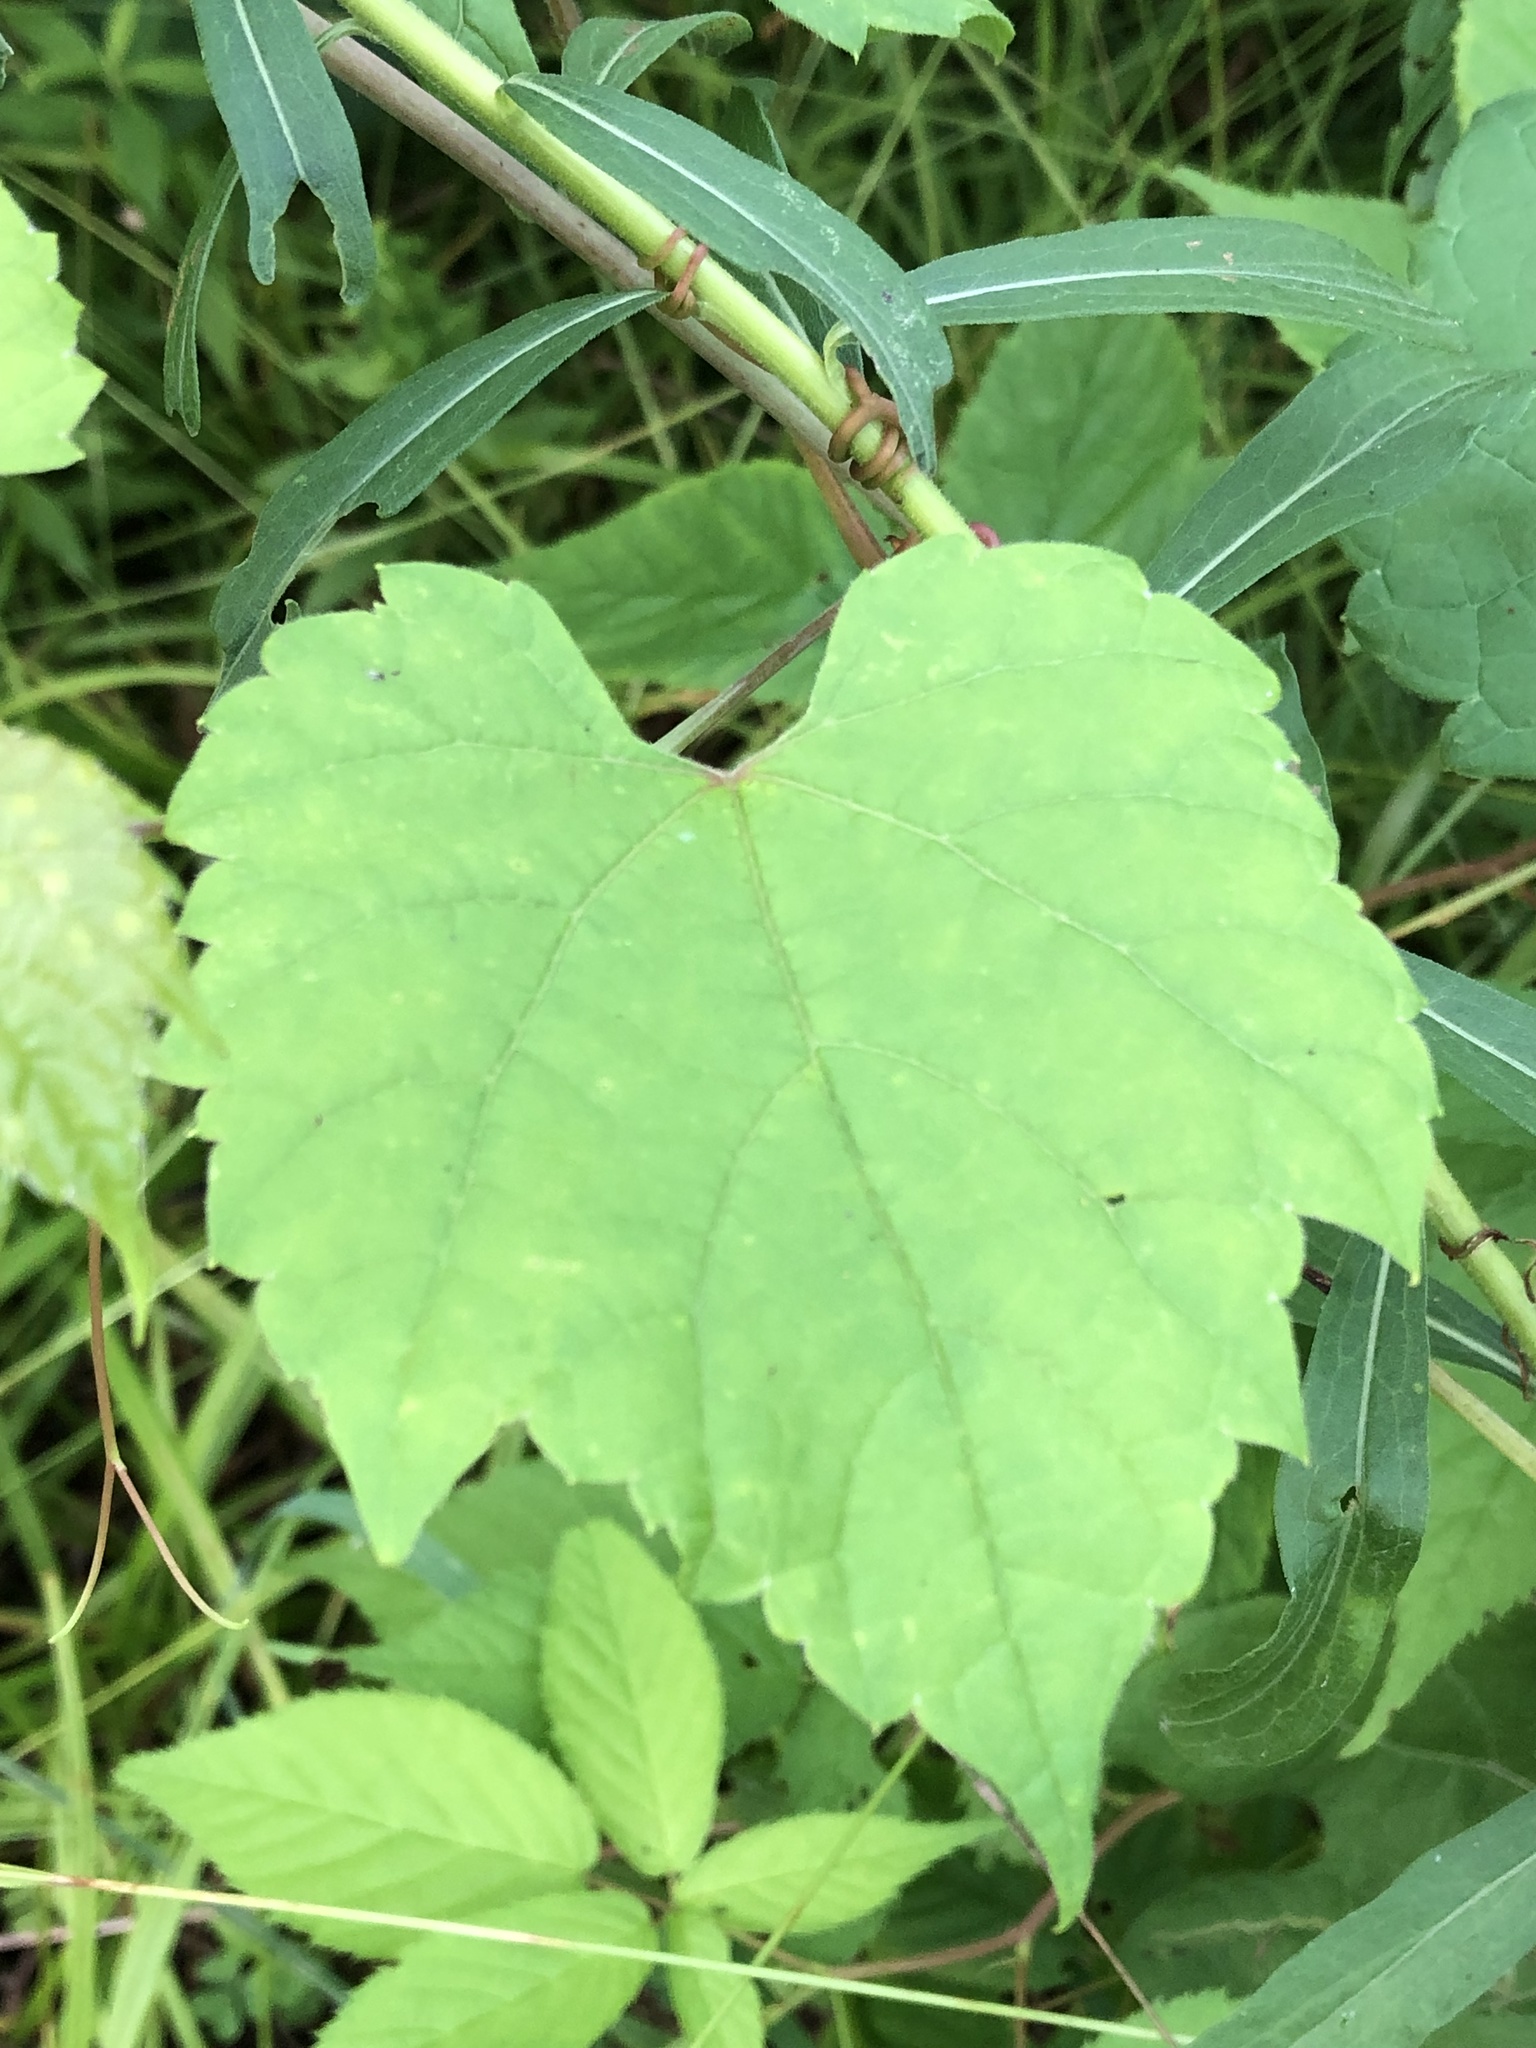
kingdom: Plantae
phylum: Tracheophyta
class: Magnoliopsida
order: Vitales
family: Vitaceae
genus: Vitis
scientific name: Vitis riparia
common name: Frost grape
